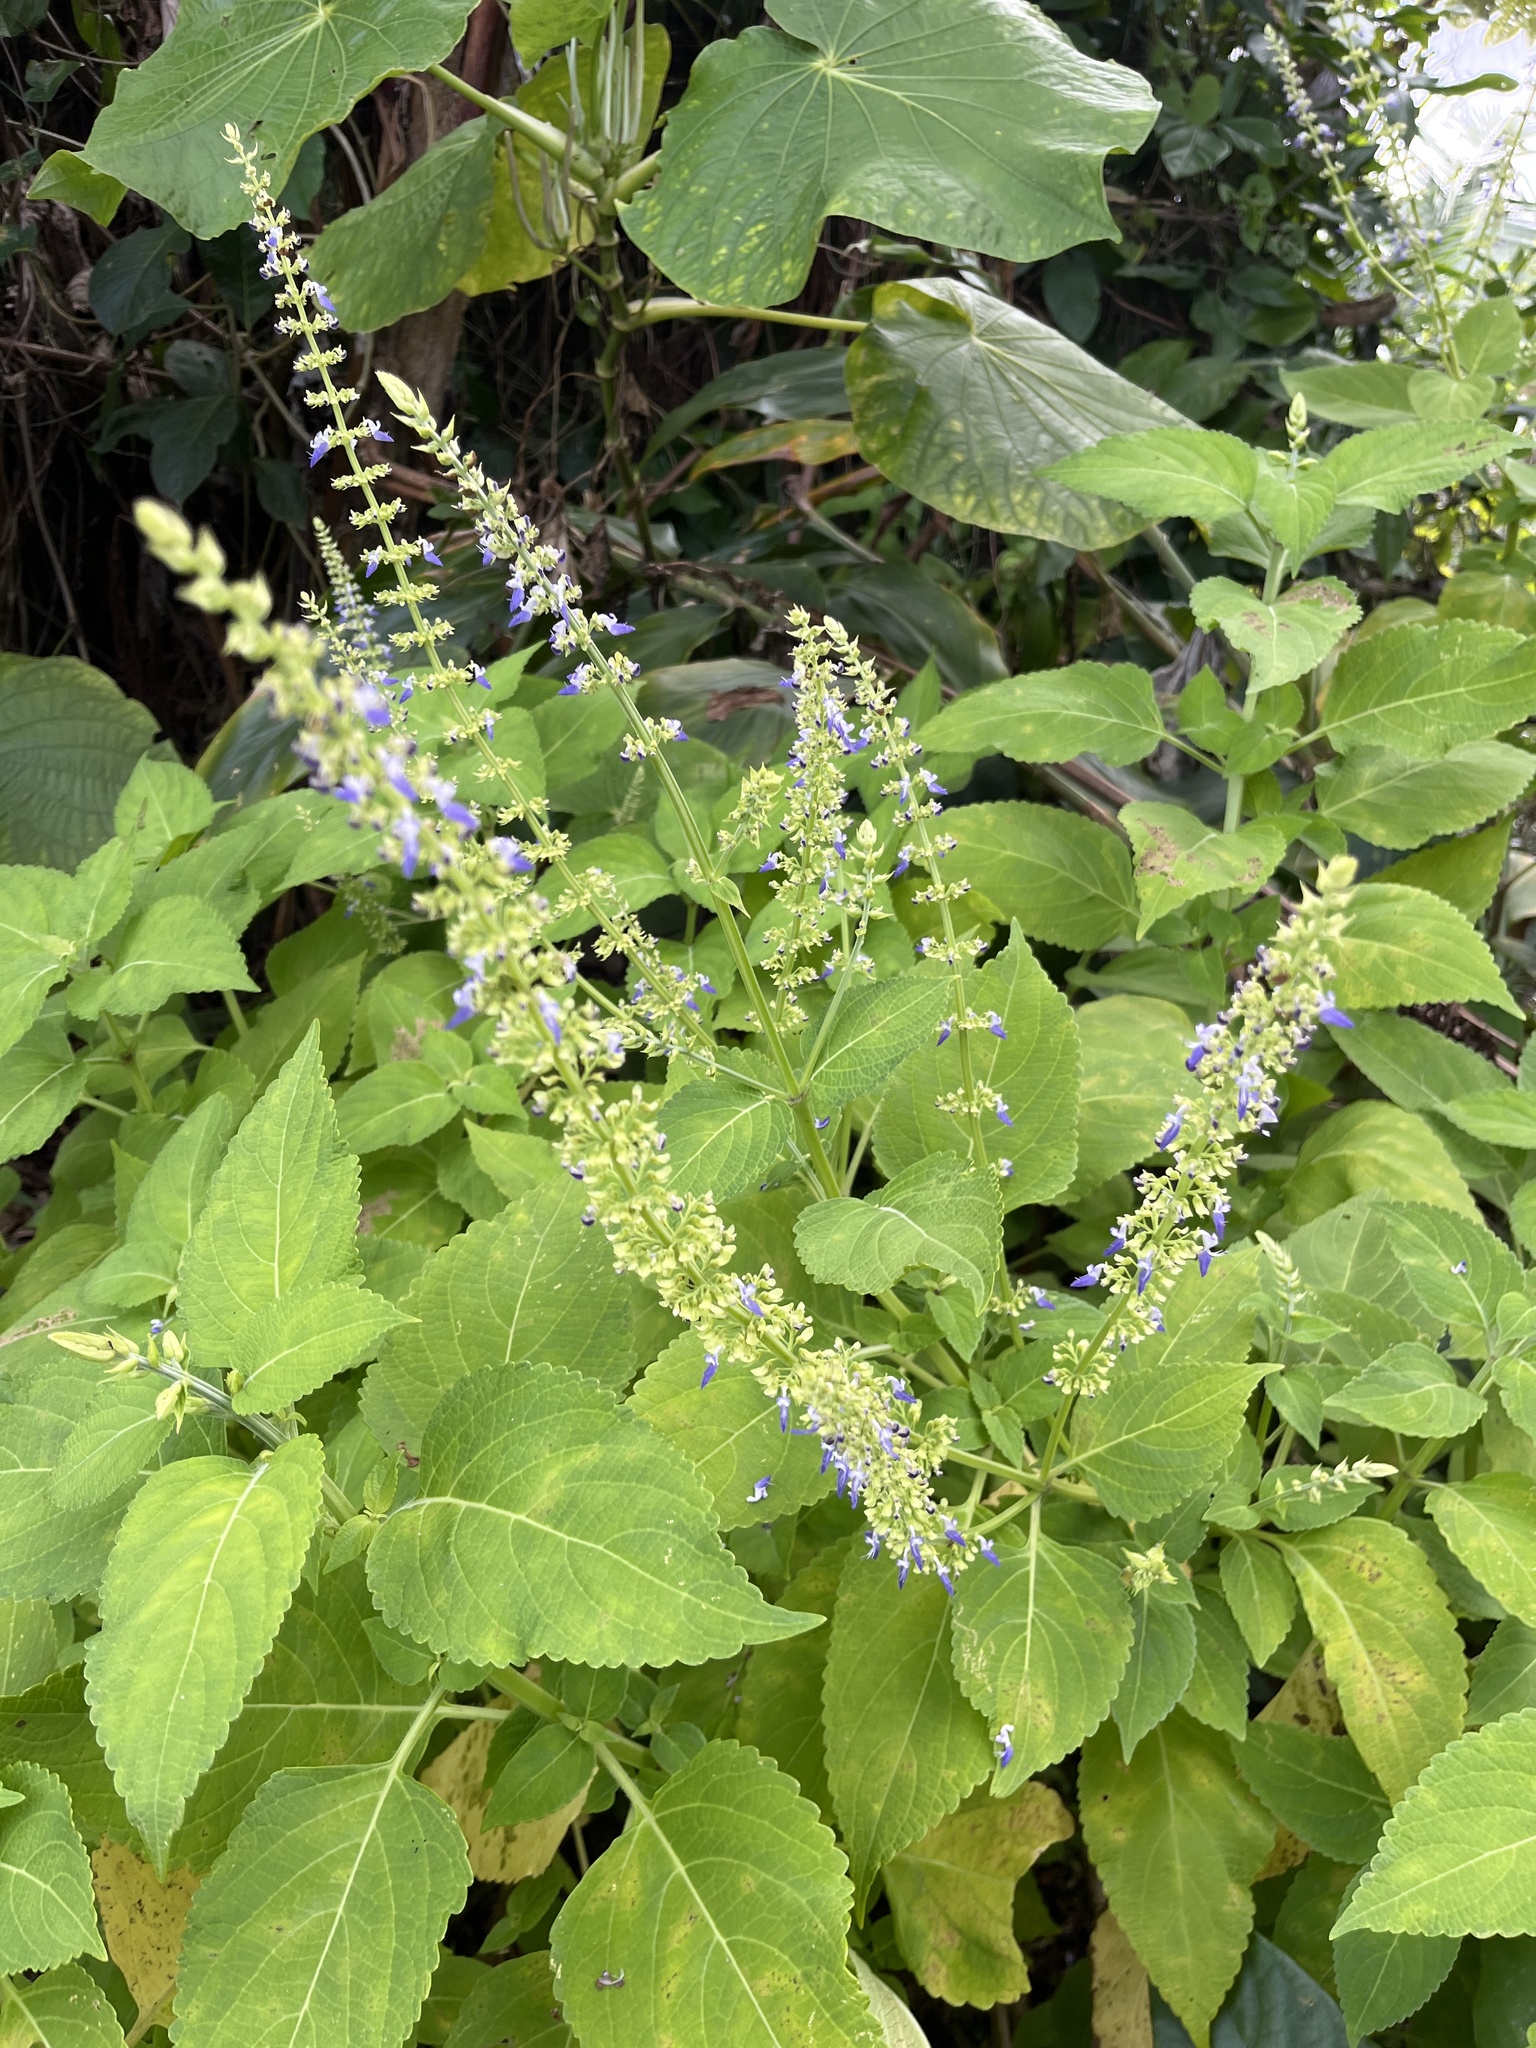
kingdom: Plantae
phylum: Tracheophyta
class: Magnoliopsida
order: Lamiales
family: Lamiaceae
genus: Coleus
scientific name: Coleus scutellarioides
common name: Coleus
